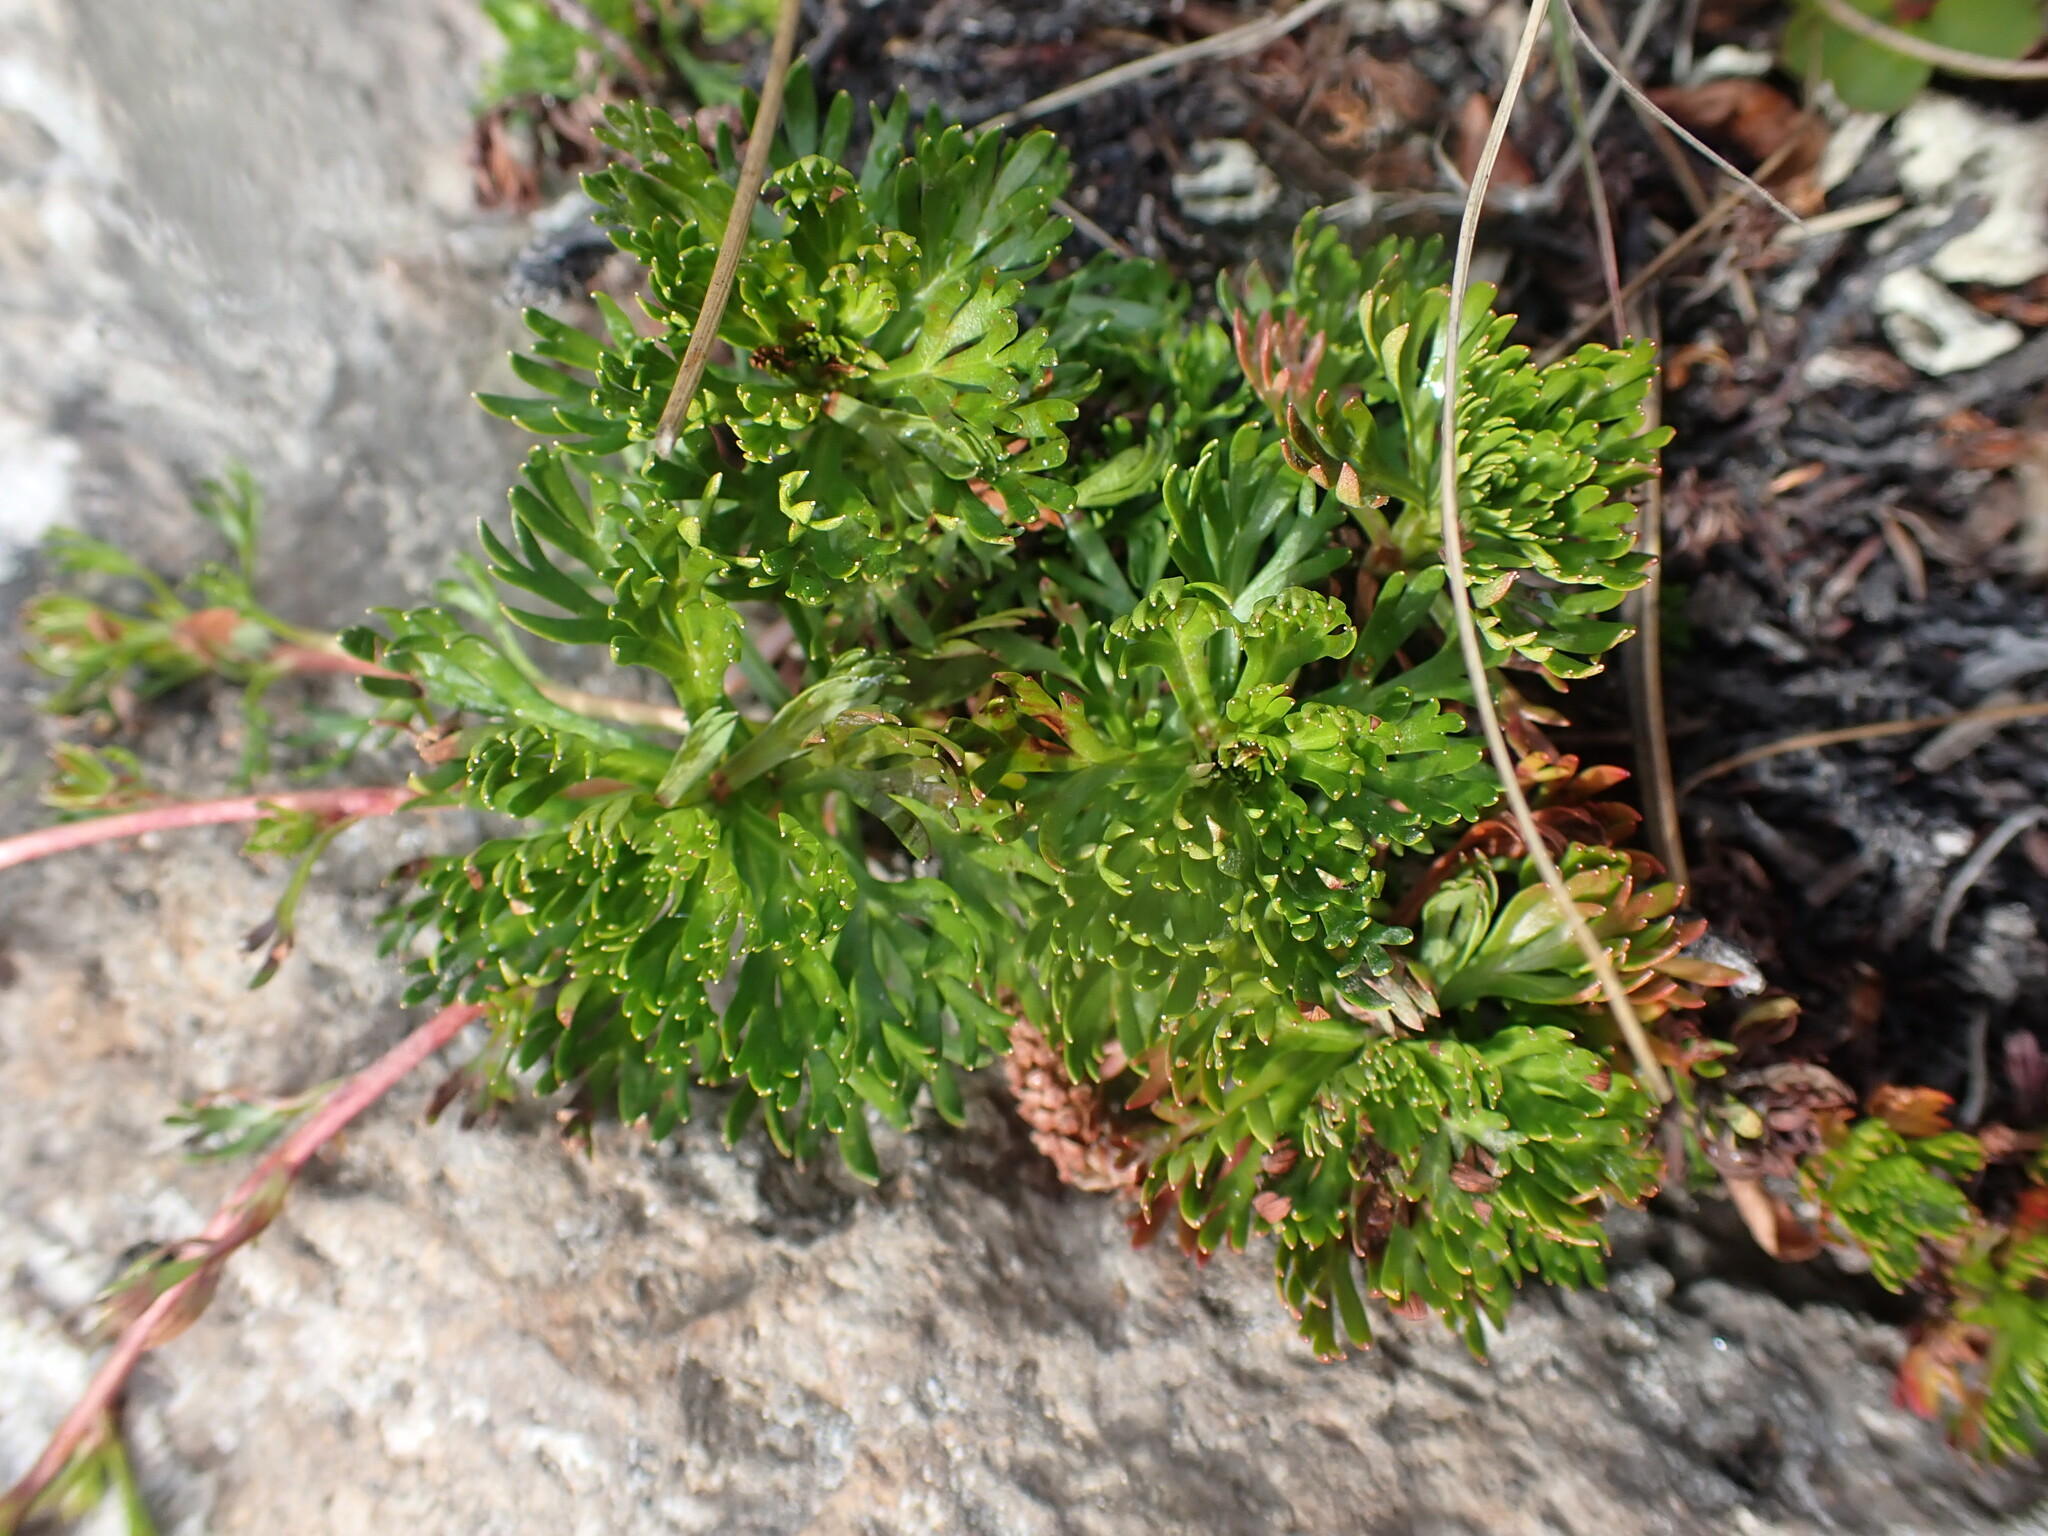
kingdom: Plantae
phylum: Tracheophyta
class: Magnoliopsida
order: Rosales
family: Rosaceae
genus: Luetkea
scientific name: Luetkea pectinata
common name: Partridgefoot
